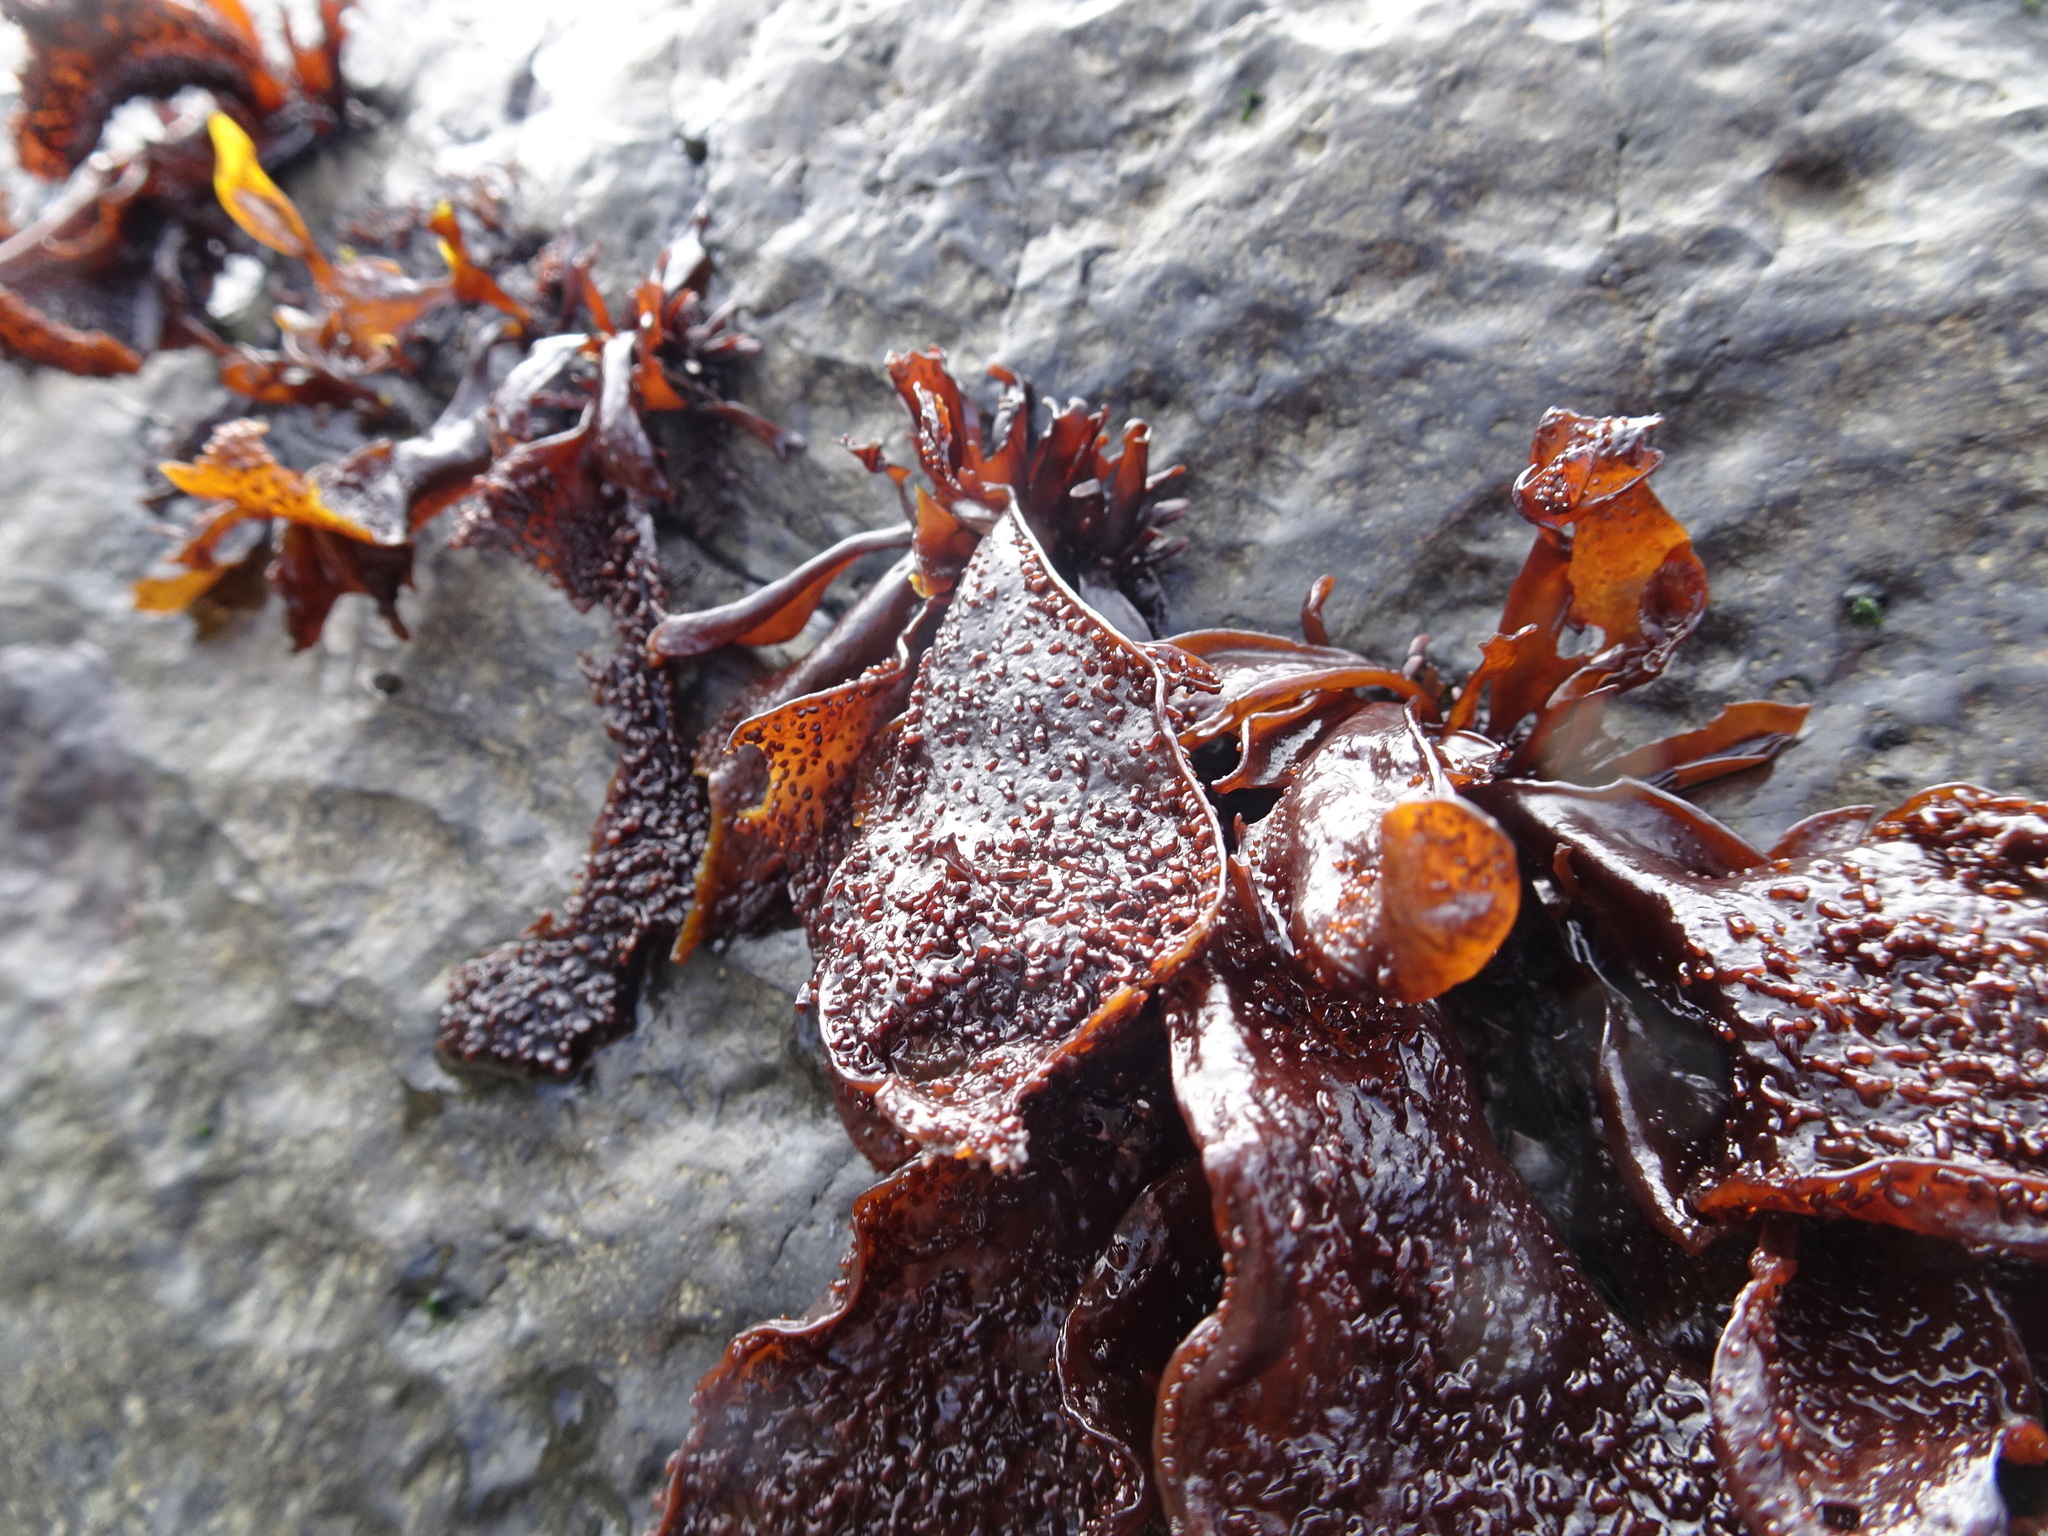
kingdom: Plantae
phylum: Rhodophyta
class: Florideophyceae
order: Gigartinales
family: Phyllophoraceae
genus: Mastocarpus
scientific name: Mastocarpus papillatus
